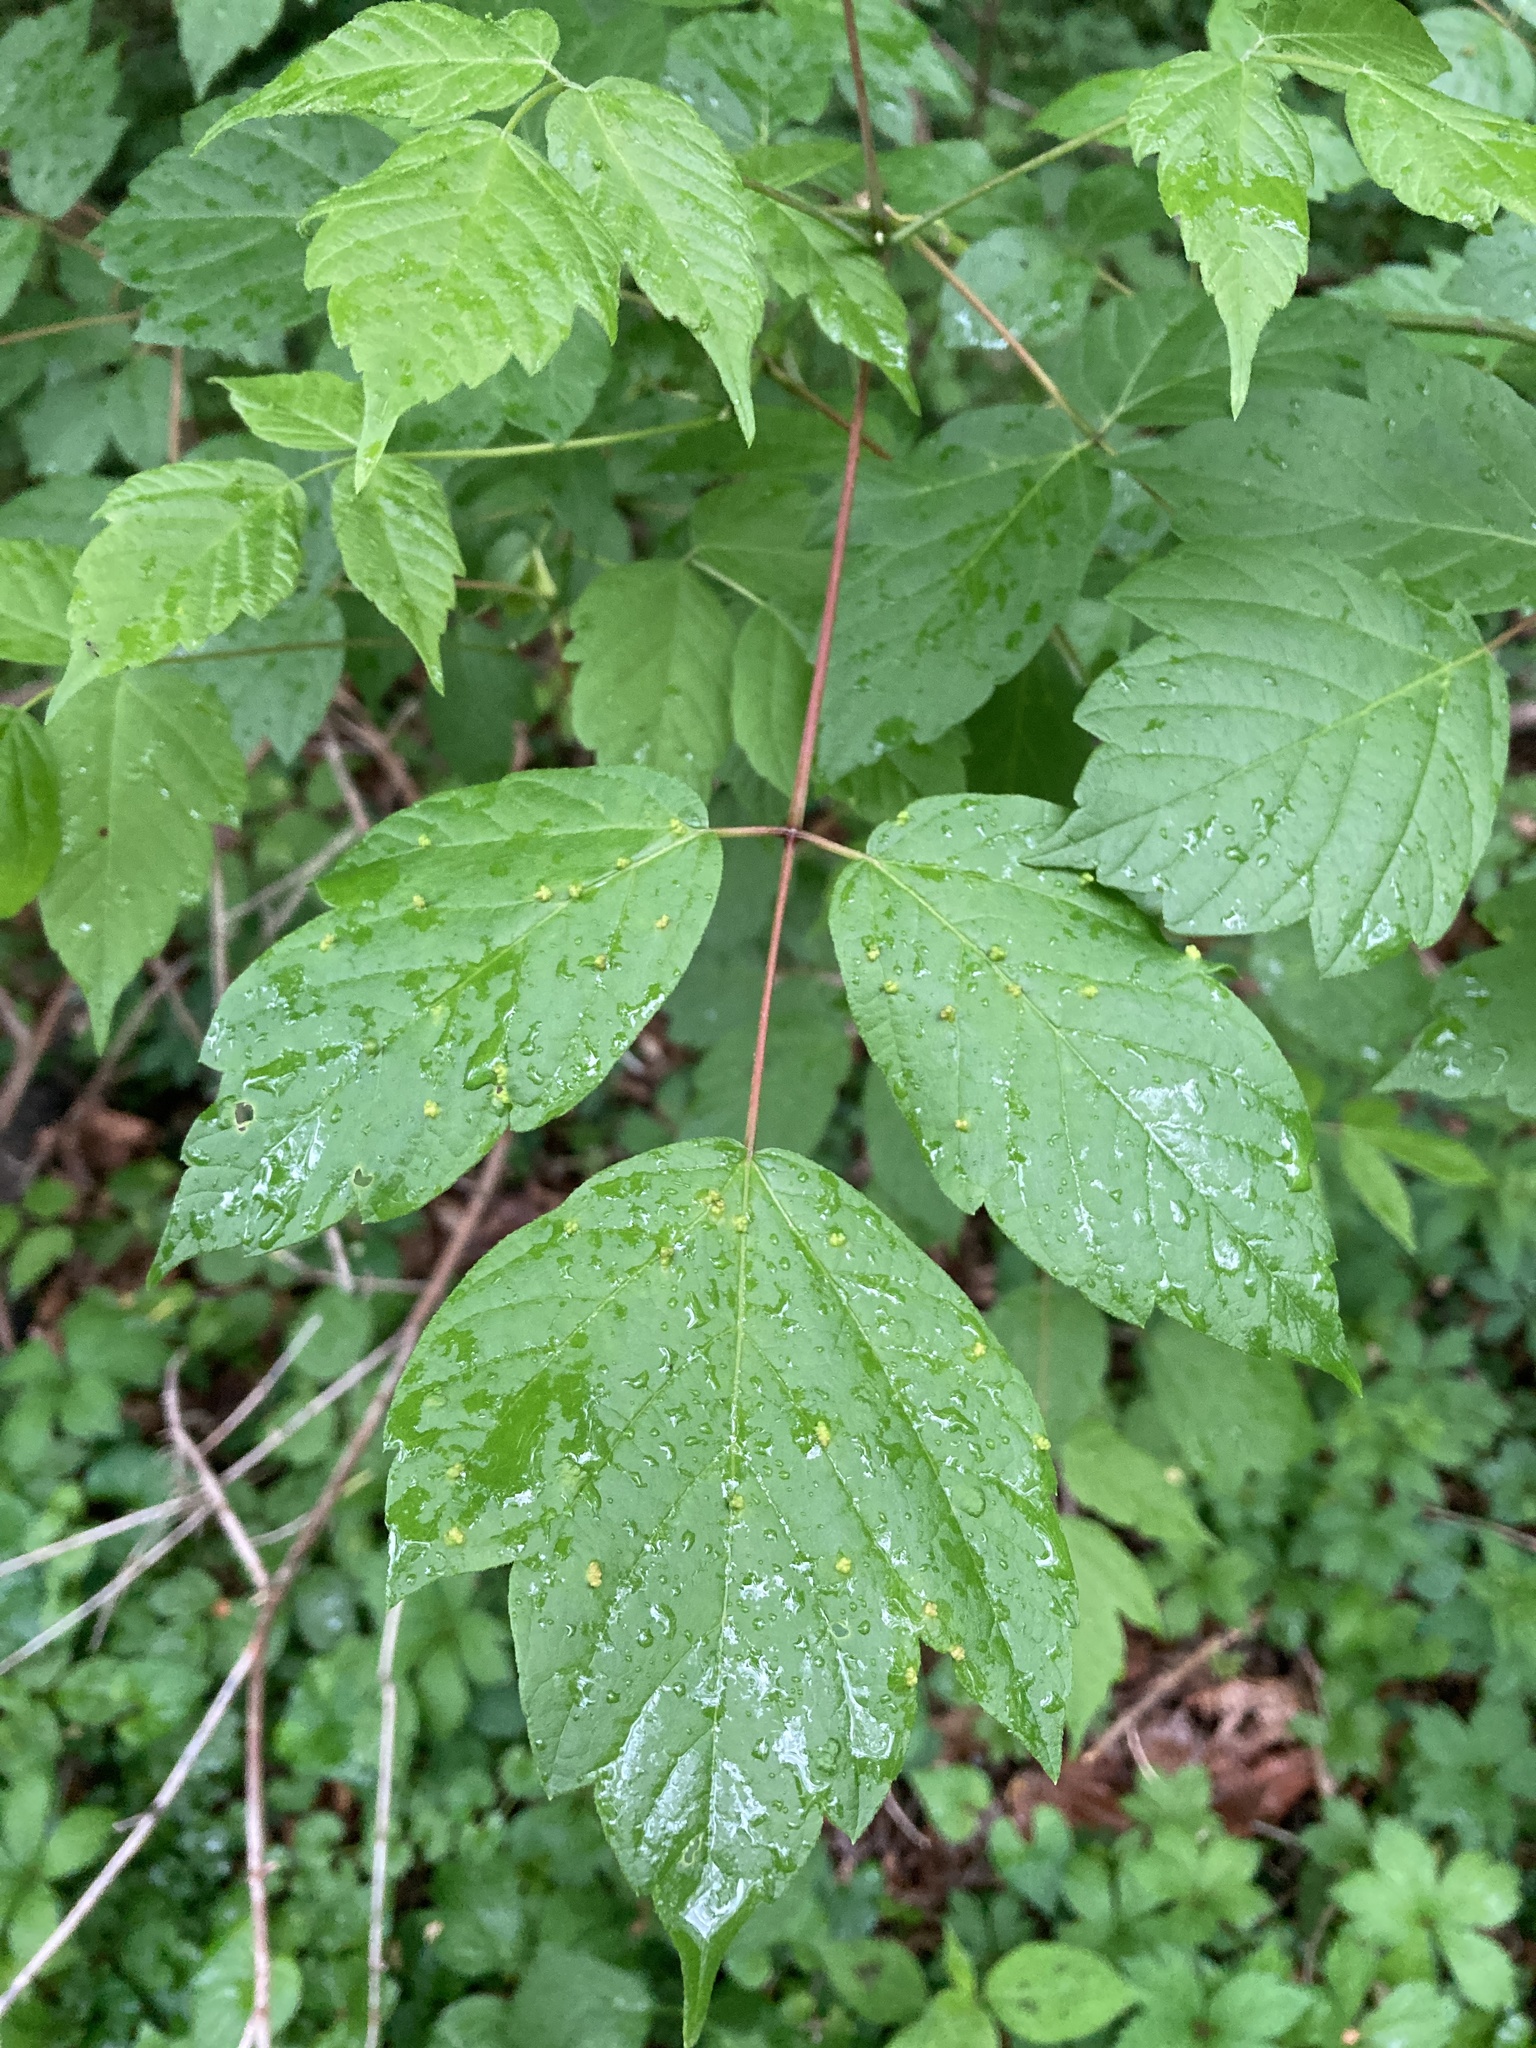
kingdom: Animalia
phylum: Arthropoda
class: Arachnida
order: Trombidiformes
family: Eriophyidae
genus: Aceria
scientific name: Aceria
